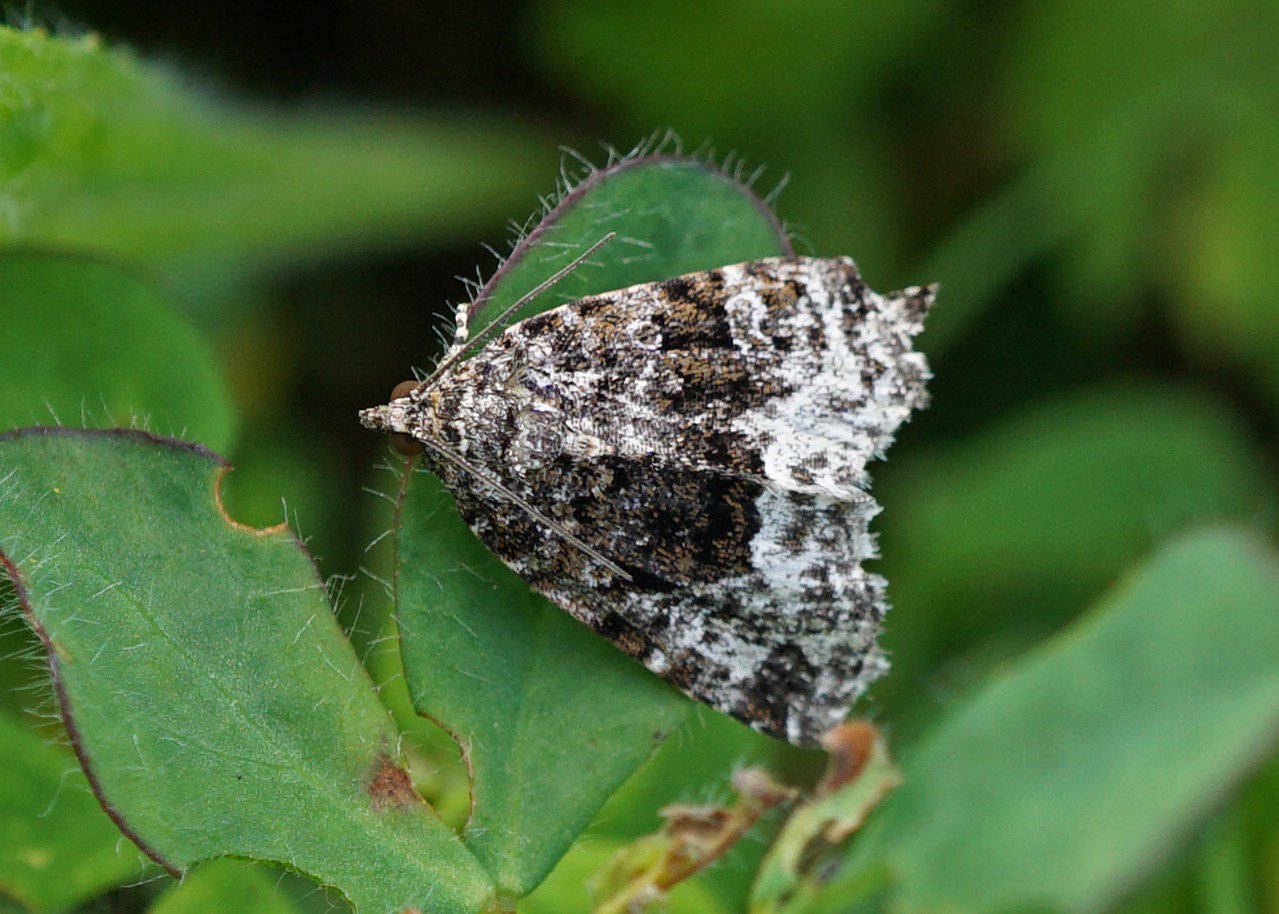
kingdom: Animalia
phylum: Arthropoda
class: Insecta
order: Lepidoptera
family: Noctuidae
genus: Deltote
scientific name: Deltote pygarga
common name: Marbled white spot
